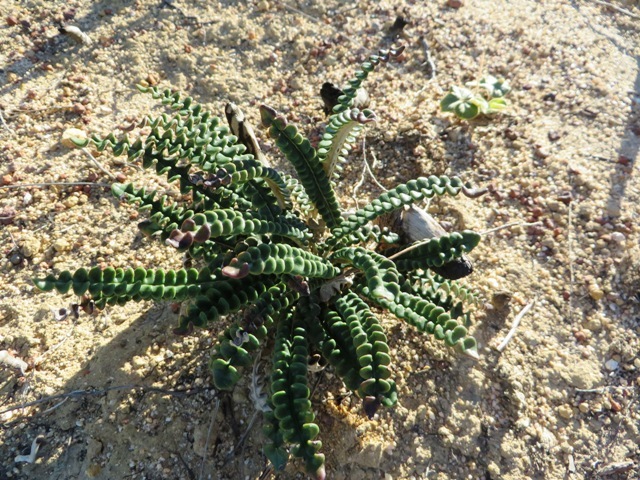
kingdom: Plantae
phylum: Tracheophyta
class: Magnoliopsida
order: Asterales
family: Asteraceae
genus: Gerbera
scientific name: Gerbera linnaei
